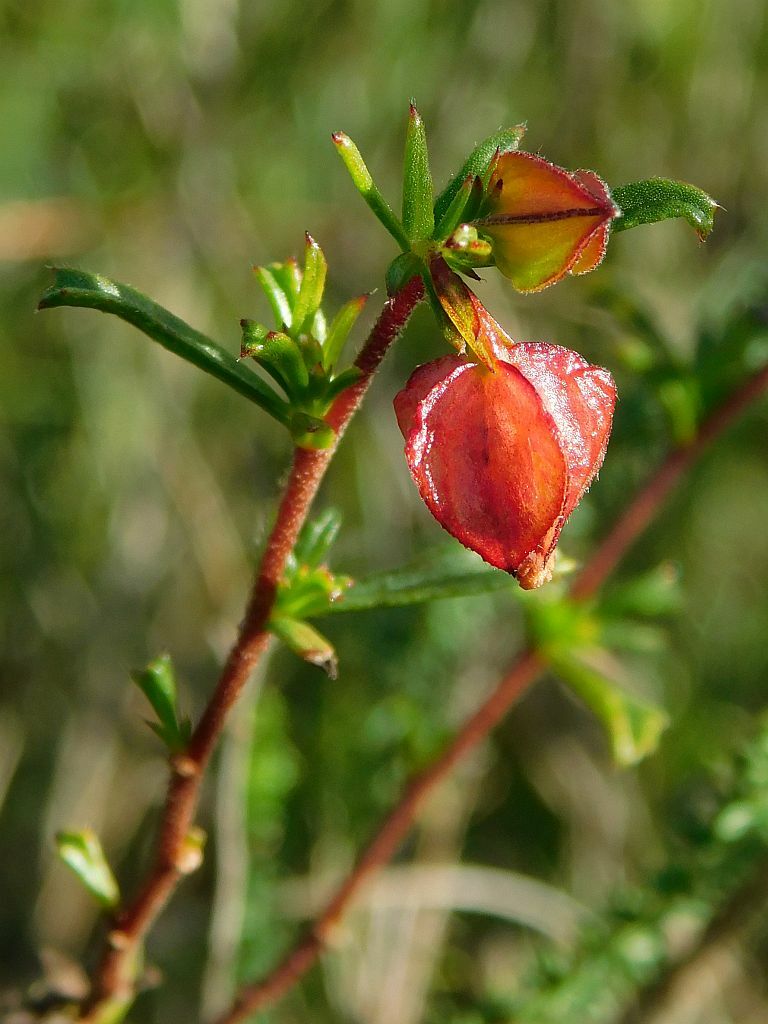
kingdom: Plantae
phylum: Tracheophyta
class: Magnoliopsida
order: Malvales
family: Malvaceae
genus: Hermannia
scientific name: Hermannia angularis
